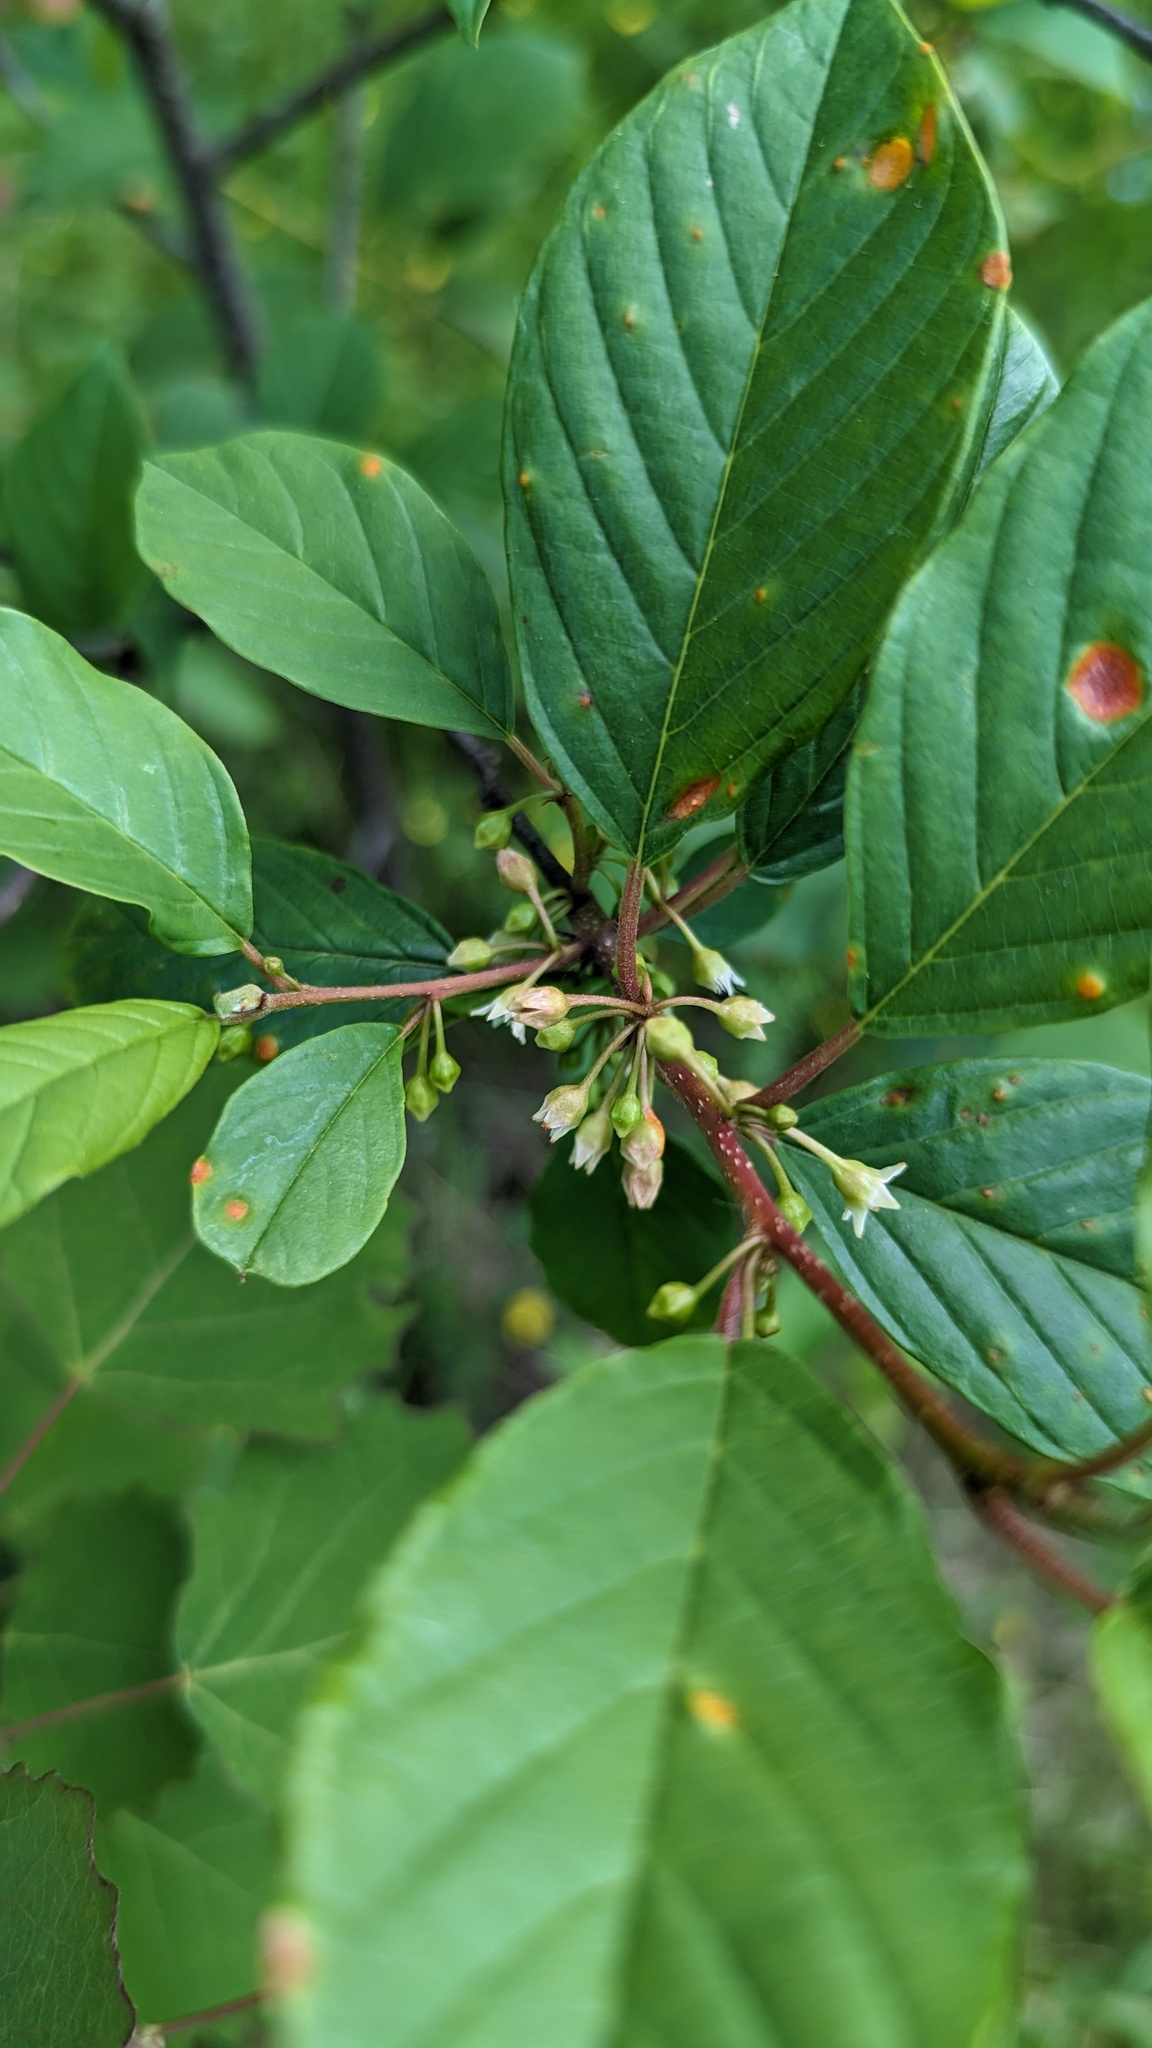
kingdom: Plantae
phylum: Tracheophyta
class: Magnoliopsida
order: Rosales
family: Rhamnaceae
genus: Frangula
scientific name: Frangula alnus
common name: Alder buckthorn
